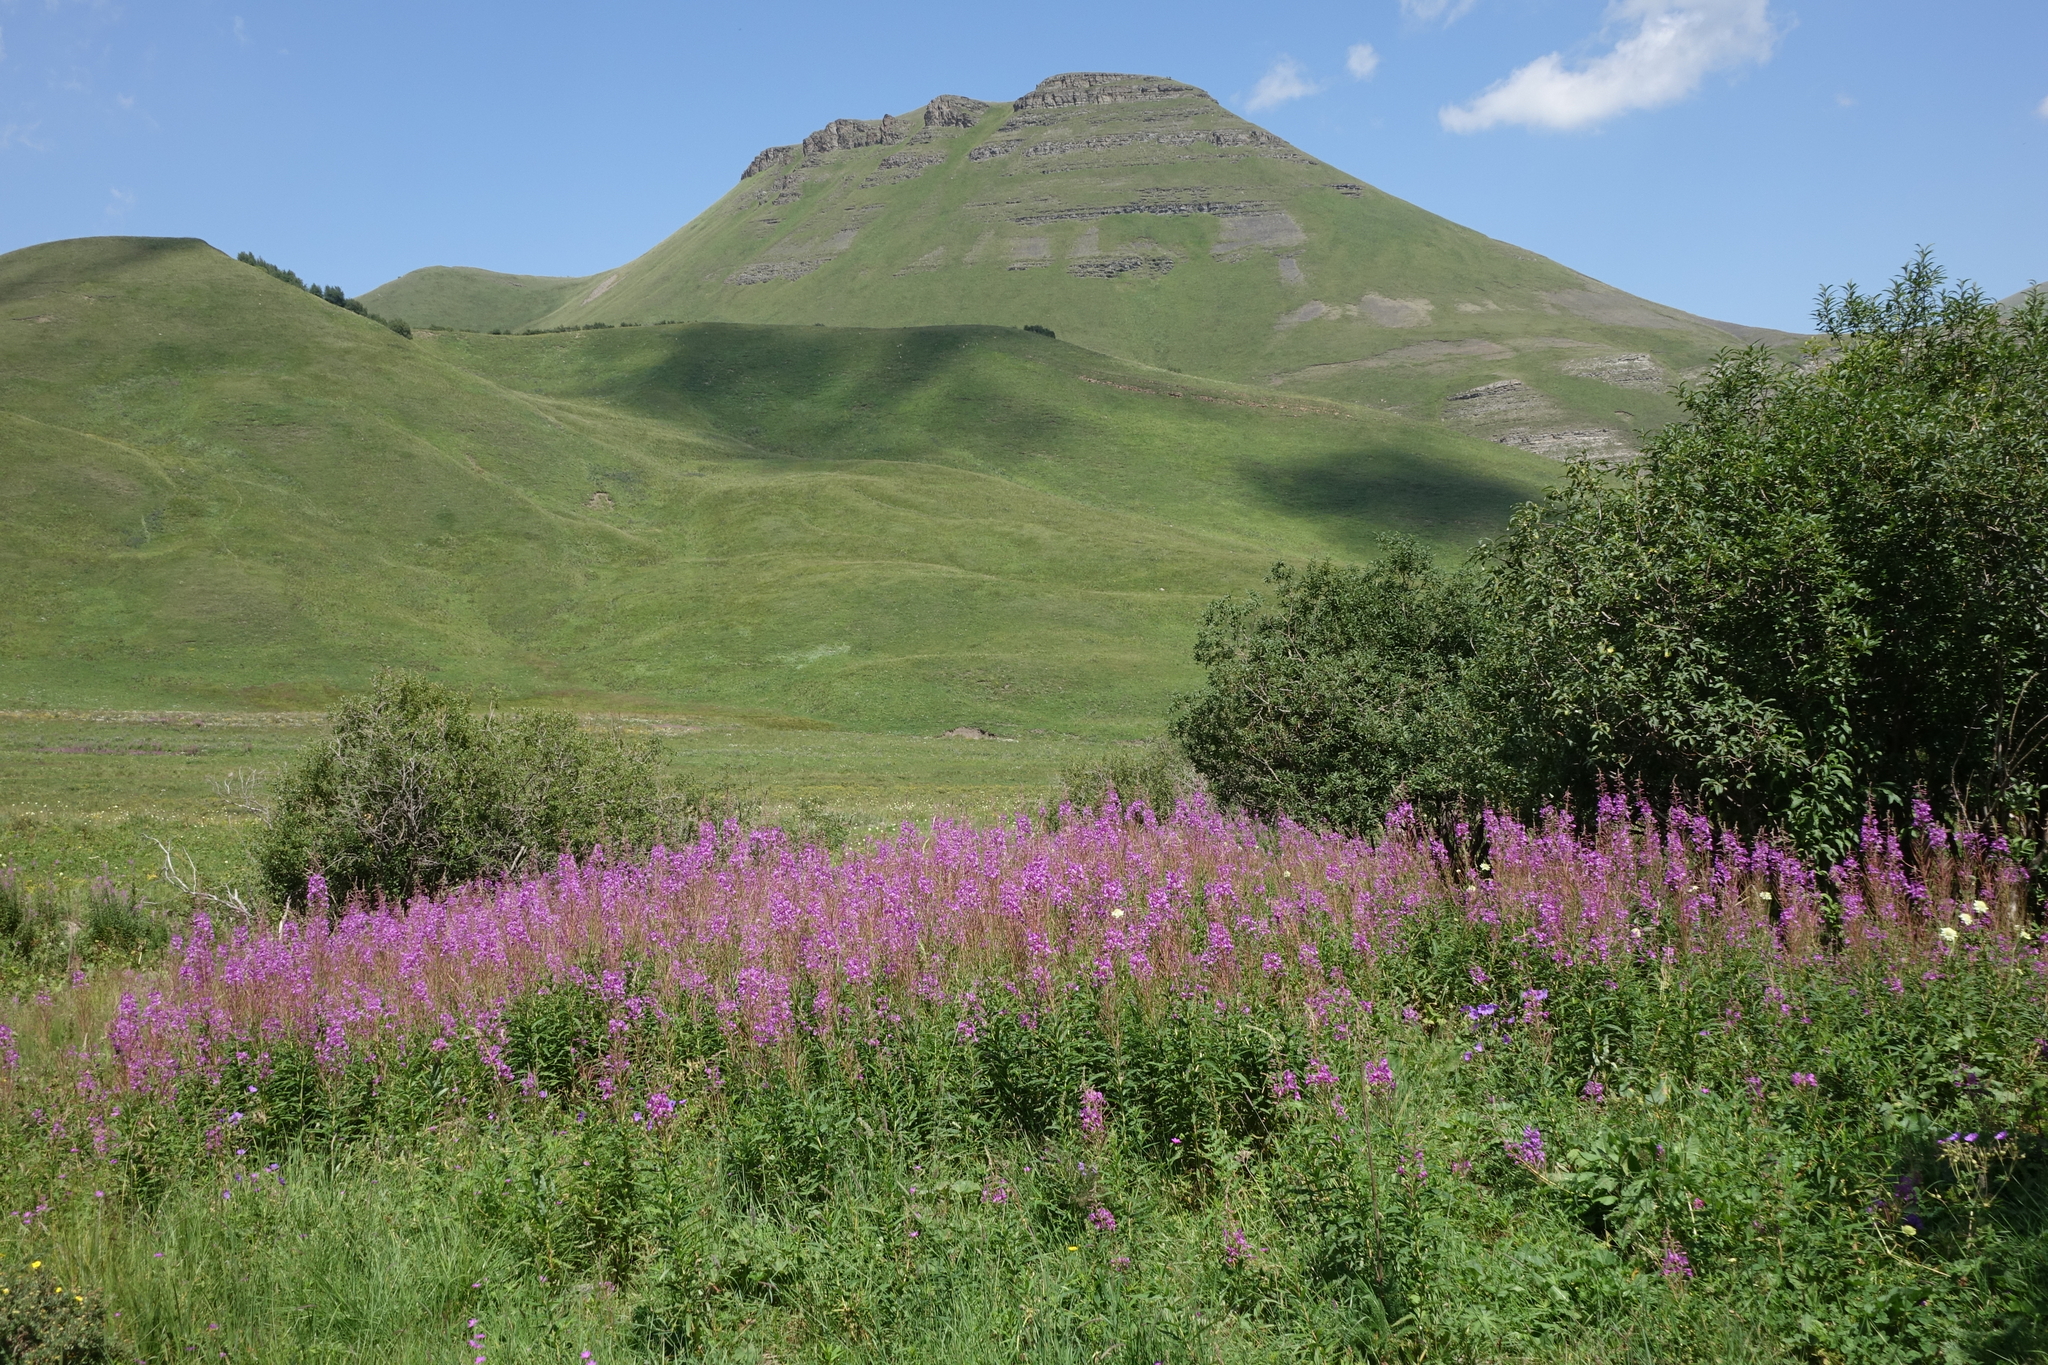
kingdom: Plantae
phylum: Tracheophyta
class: Magnoliopsida
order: Myrtales
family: Onagraceae
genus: Chamaenerion
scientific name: Chamaenerion angustifolium
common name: Fireweed
